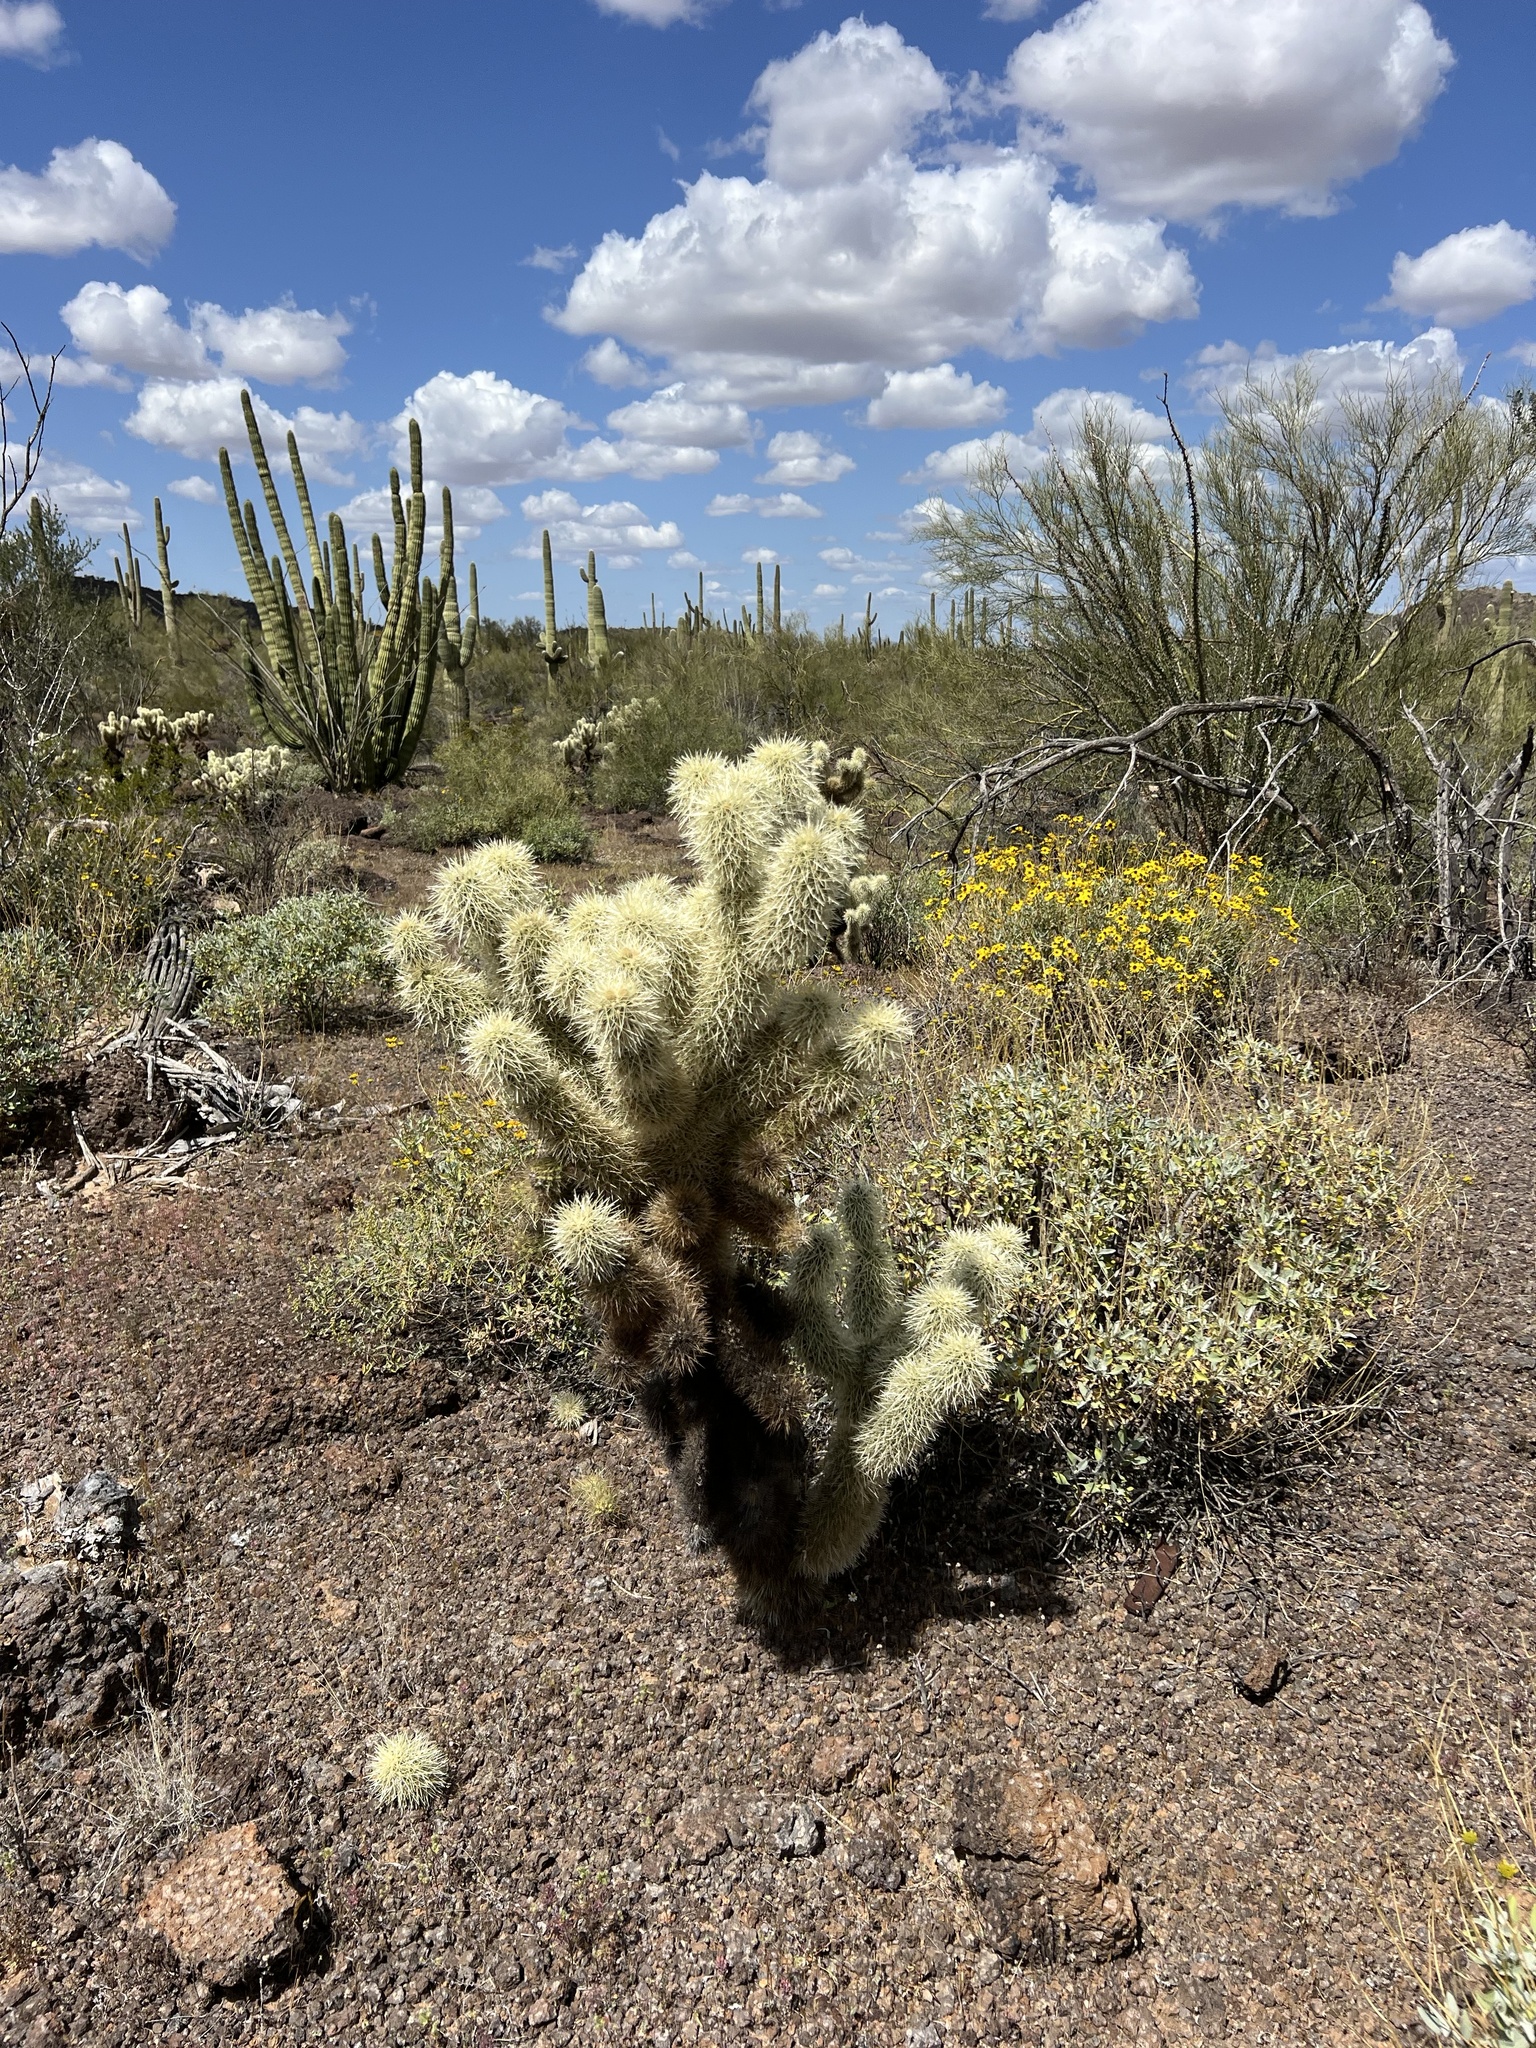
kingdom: Plantae
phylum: Tracheophyta
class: Magnoliopsida
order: Caryophyllales
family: Cactaceae
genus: Cylindropuntia
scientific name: Cylindropuntia fosbergii
